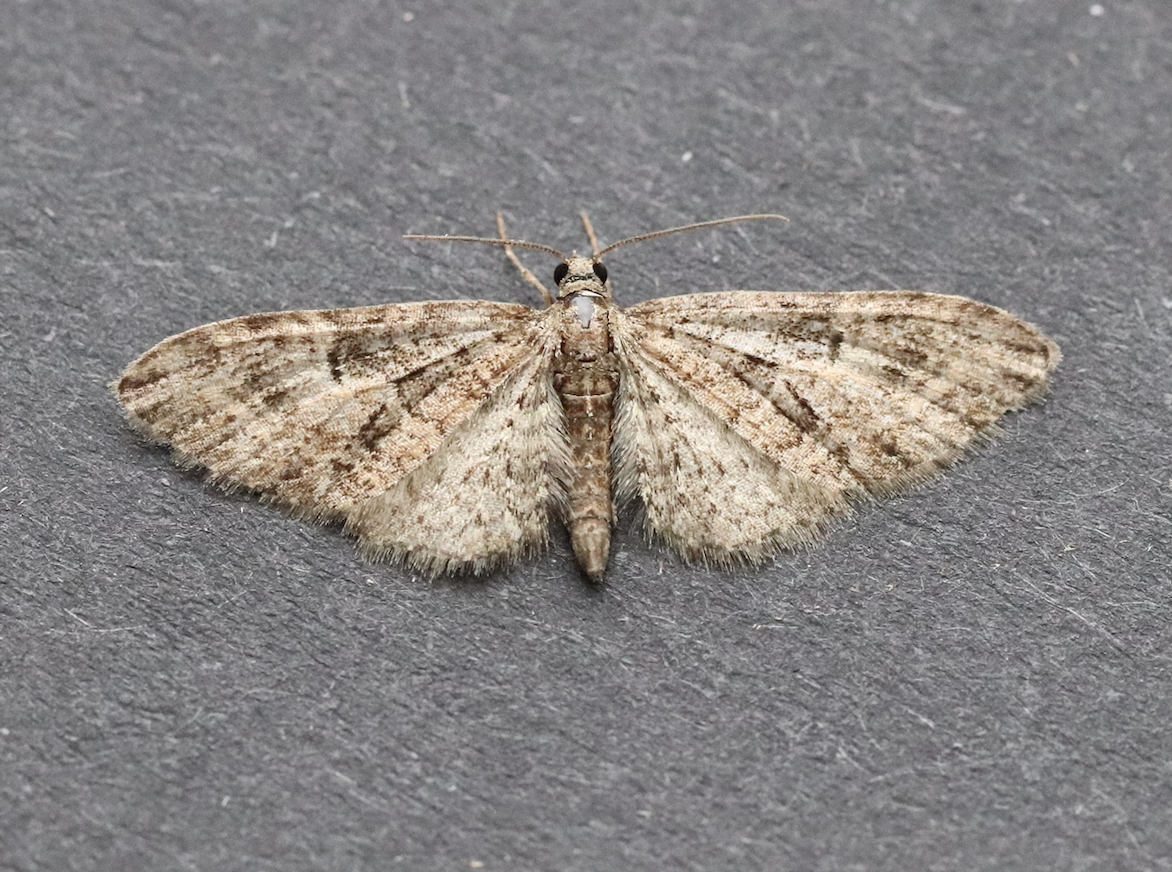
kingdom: Animalia
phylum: Arthropoda
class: Insecta
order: Lepidoptera
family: Geometridae
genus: Eupithecia
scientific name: Eupithecia abbreviata
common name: Brindled pug
